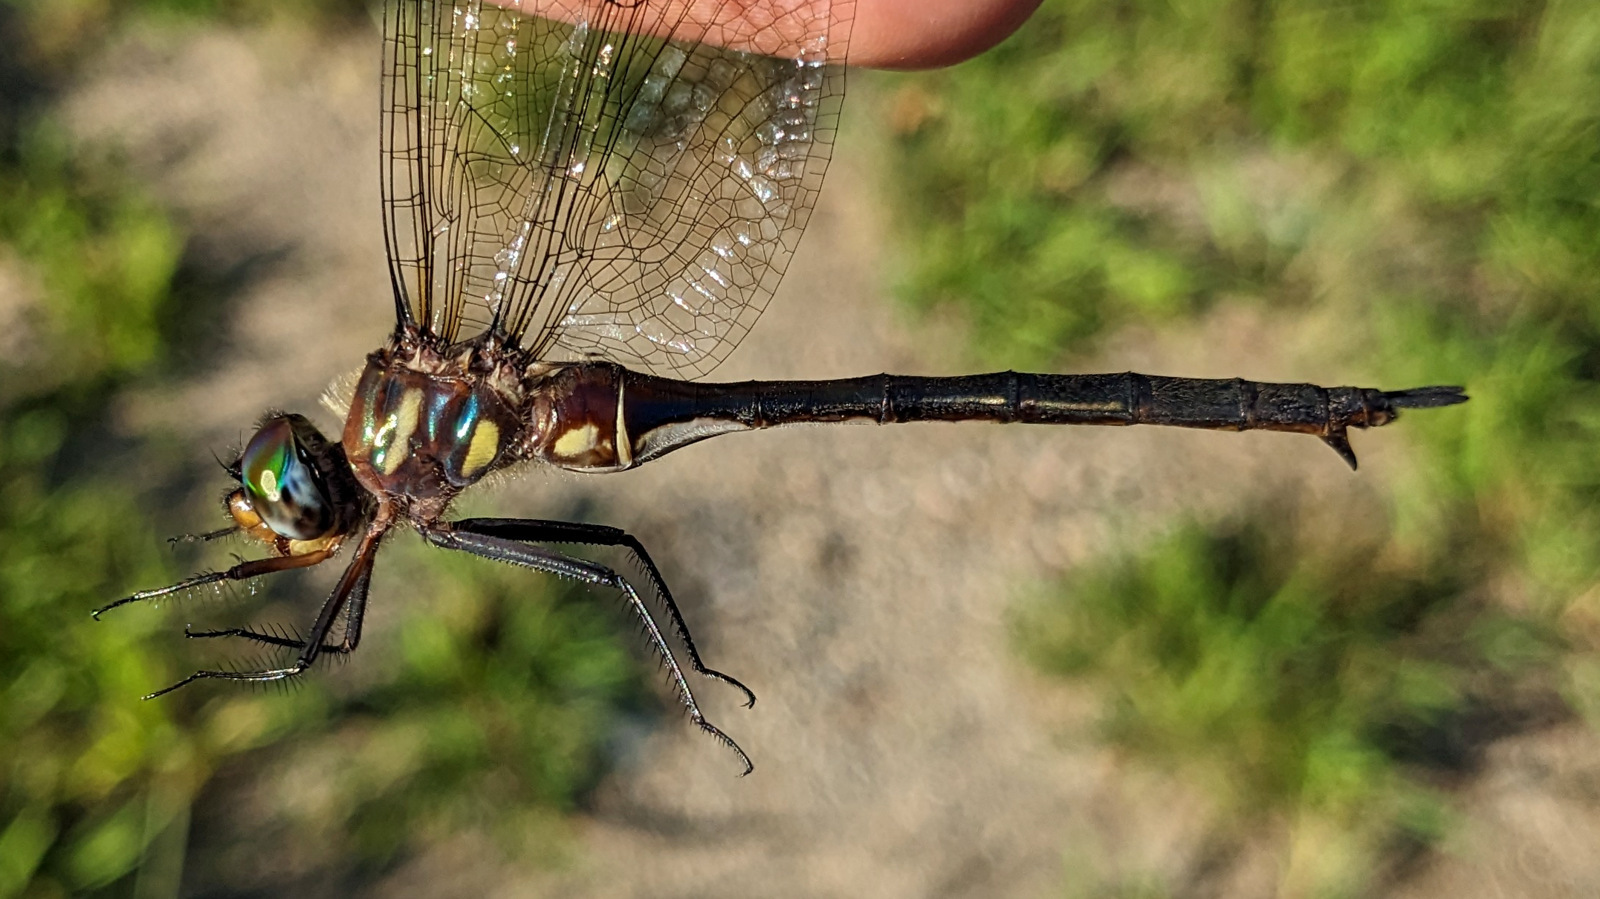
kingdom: Animalia
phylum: Arthropoda
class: Insecta
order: Odonata
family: Corduliidae
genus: Somatochlora
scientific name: Somatochlora tenebrosa
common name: Clamp-tipped emerald
